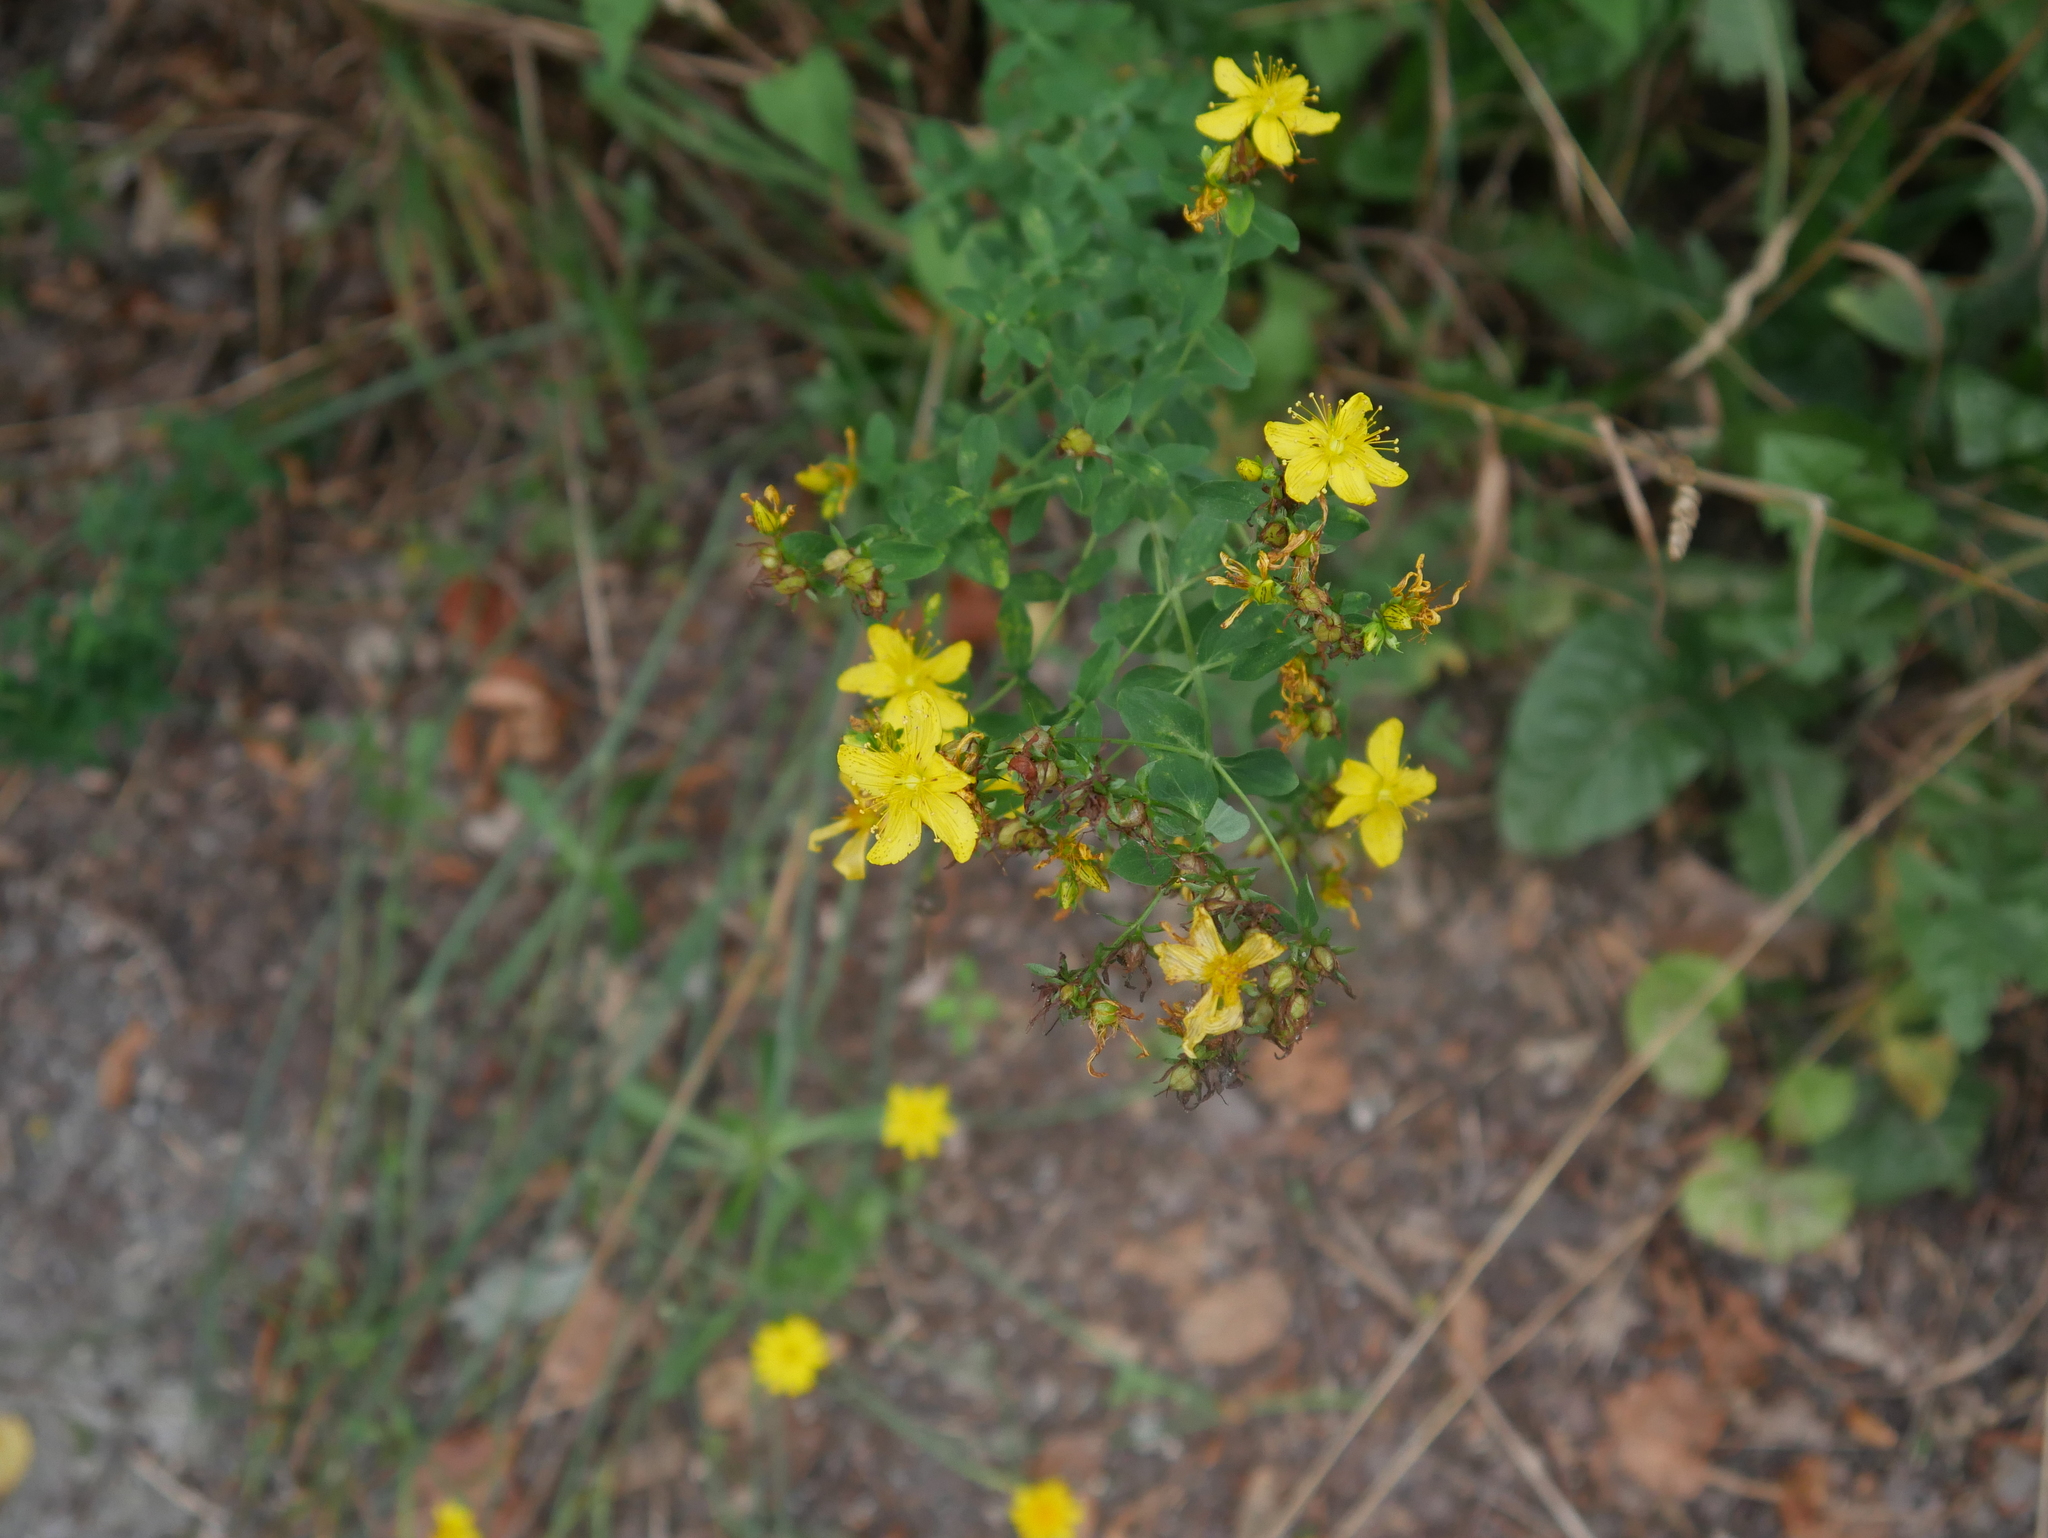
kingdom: Plantae
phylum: Tracheophyta
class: Magnoliopsida
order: Malpighiales
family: Hypericaceae
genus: Hypericum
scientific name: Hypericum perforatum
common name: Common st. johnswort
